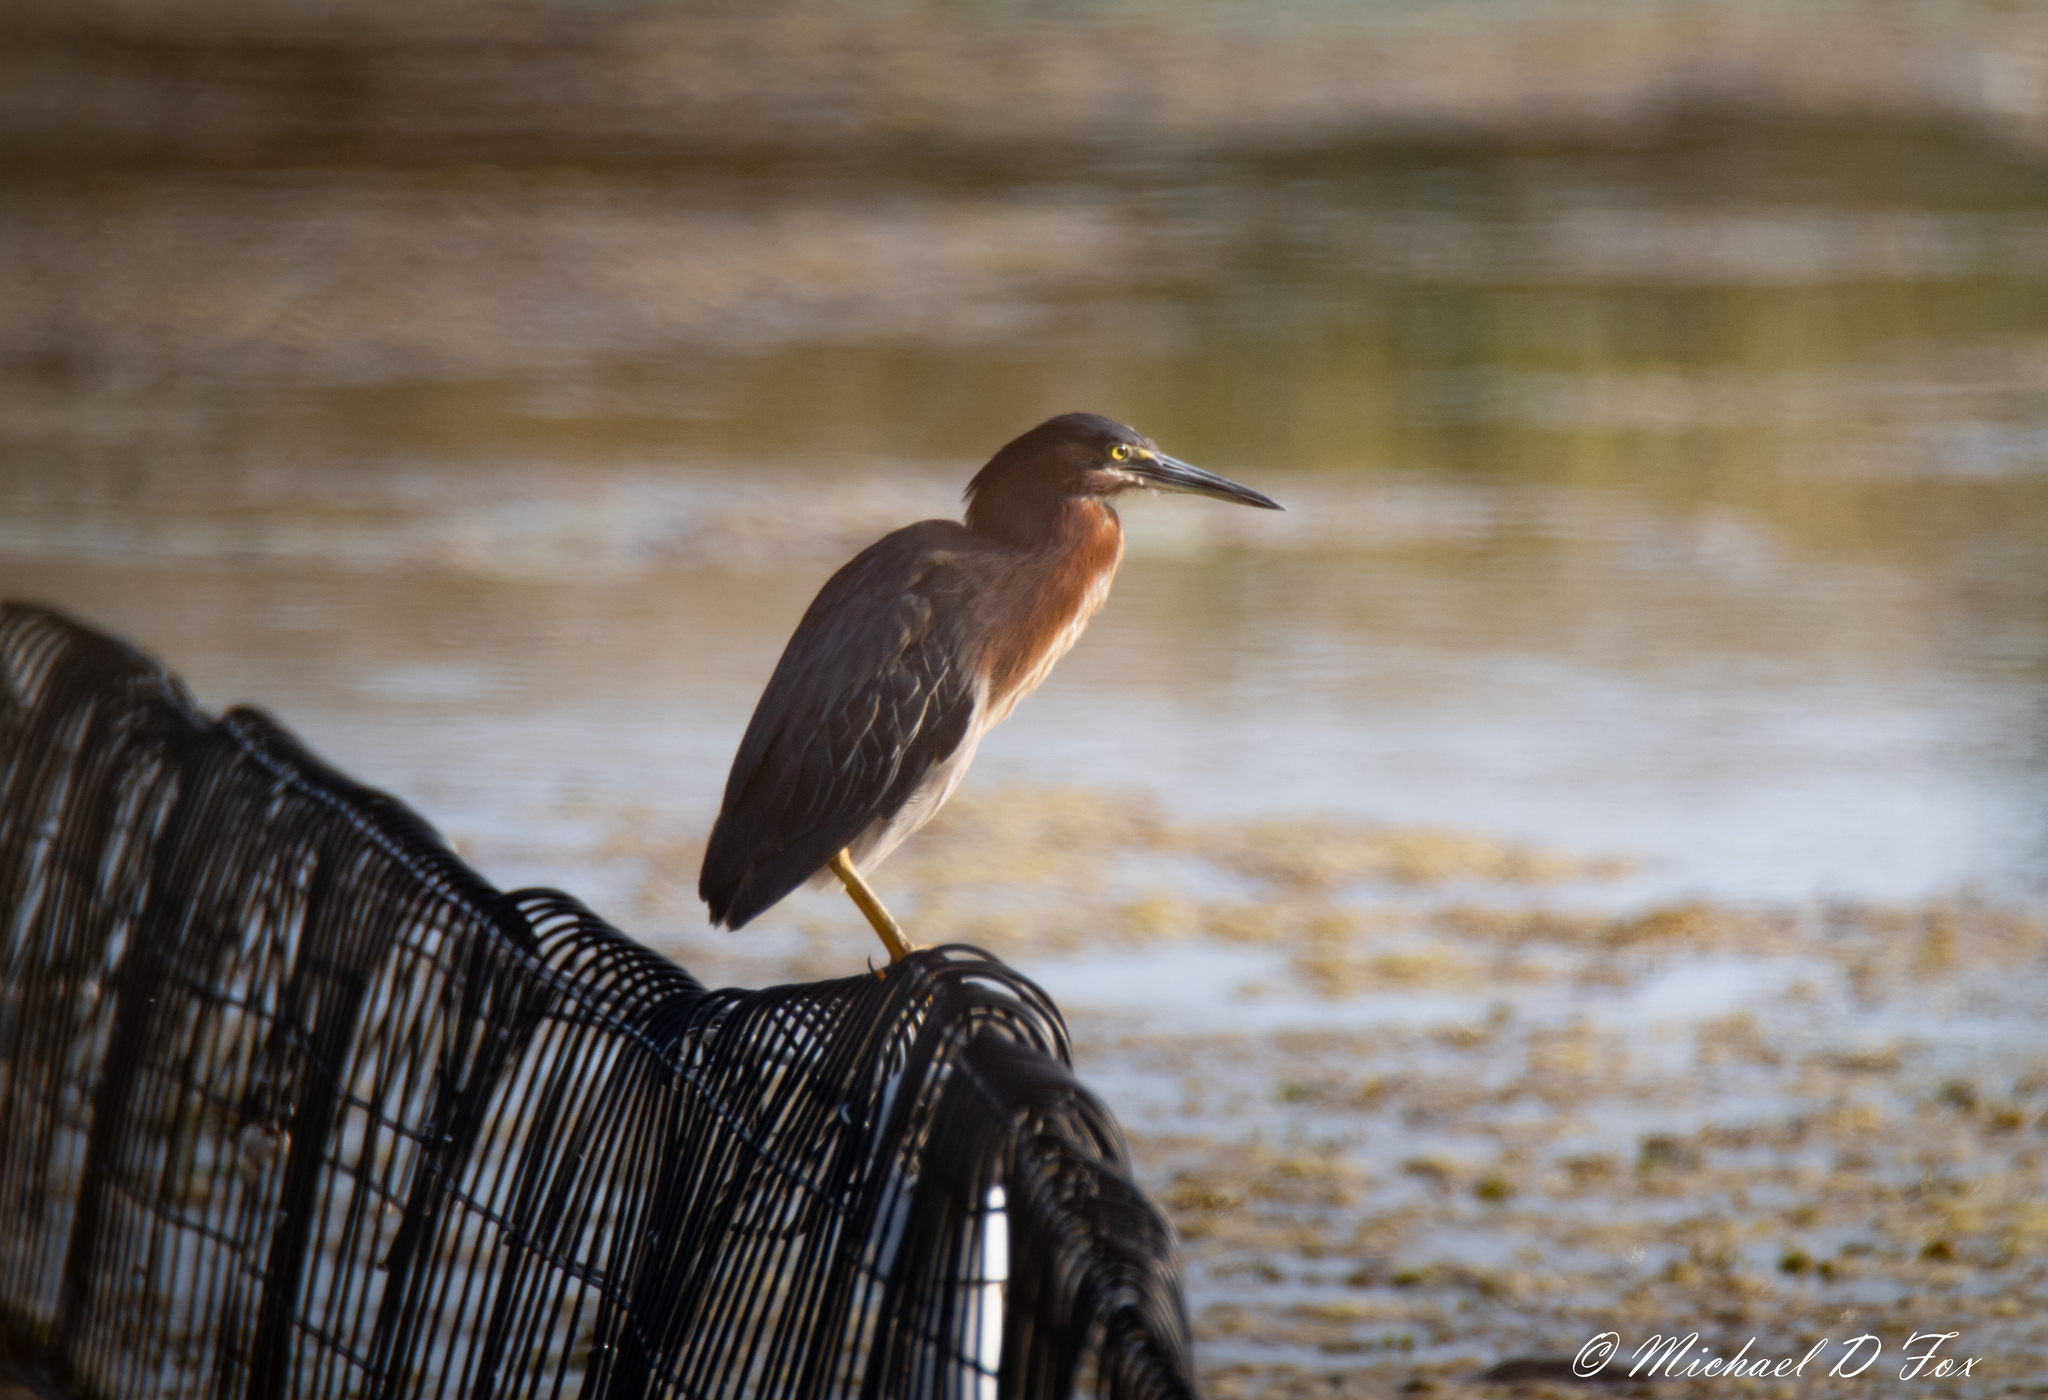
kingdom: Animalia
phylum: Chordata
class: Aves
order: Pelecaniformes
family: Ardeidae
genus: Butorides
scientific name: Butorides virescens
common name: Green heron
